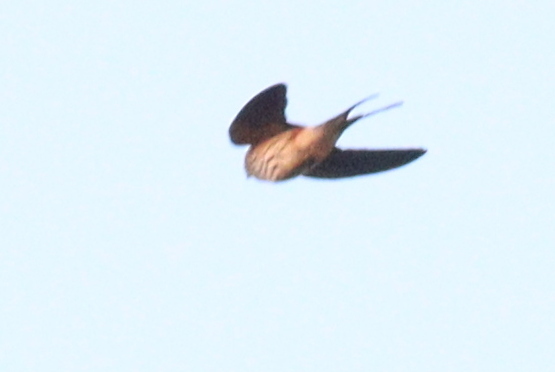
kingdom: Animalia
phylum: Chordata
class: Aves
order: Passeriformes
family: Hirundinidae
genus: Cecropis
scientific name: Cecropis abyssinica
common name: Lesser striped-swallow
